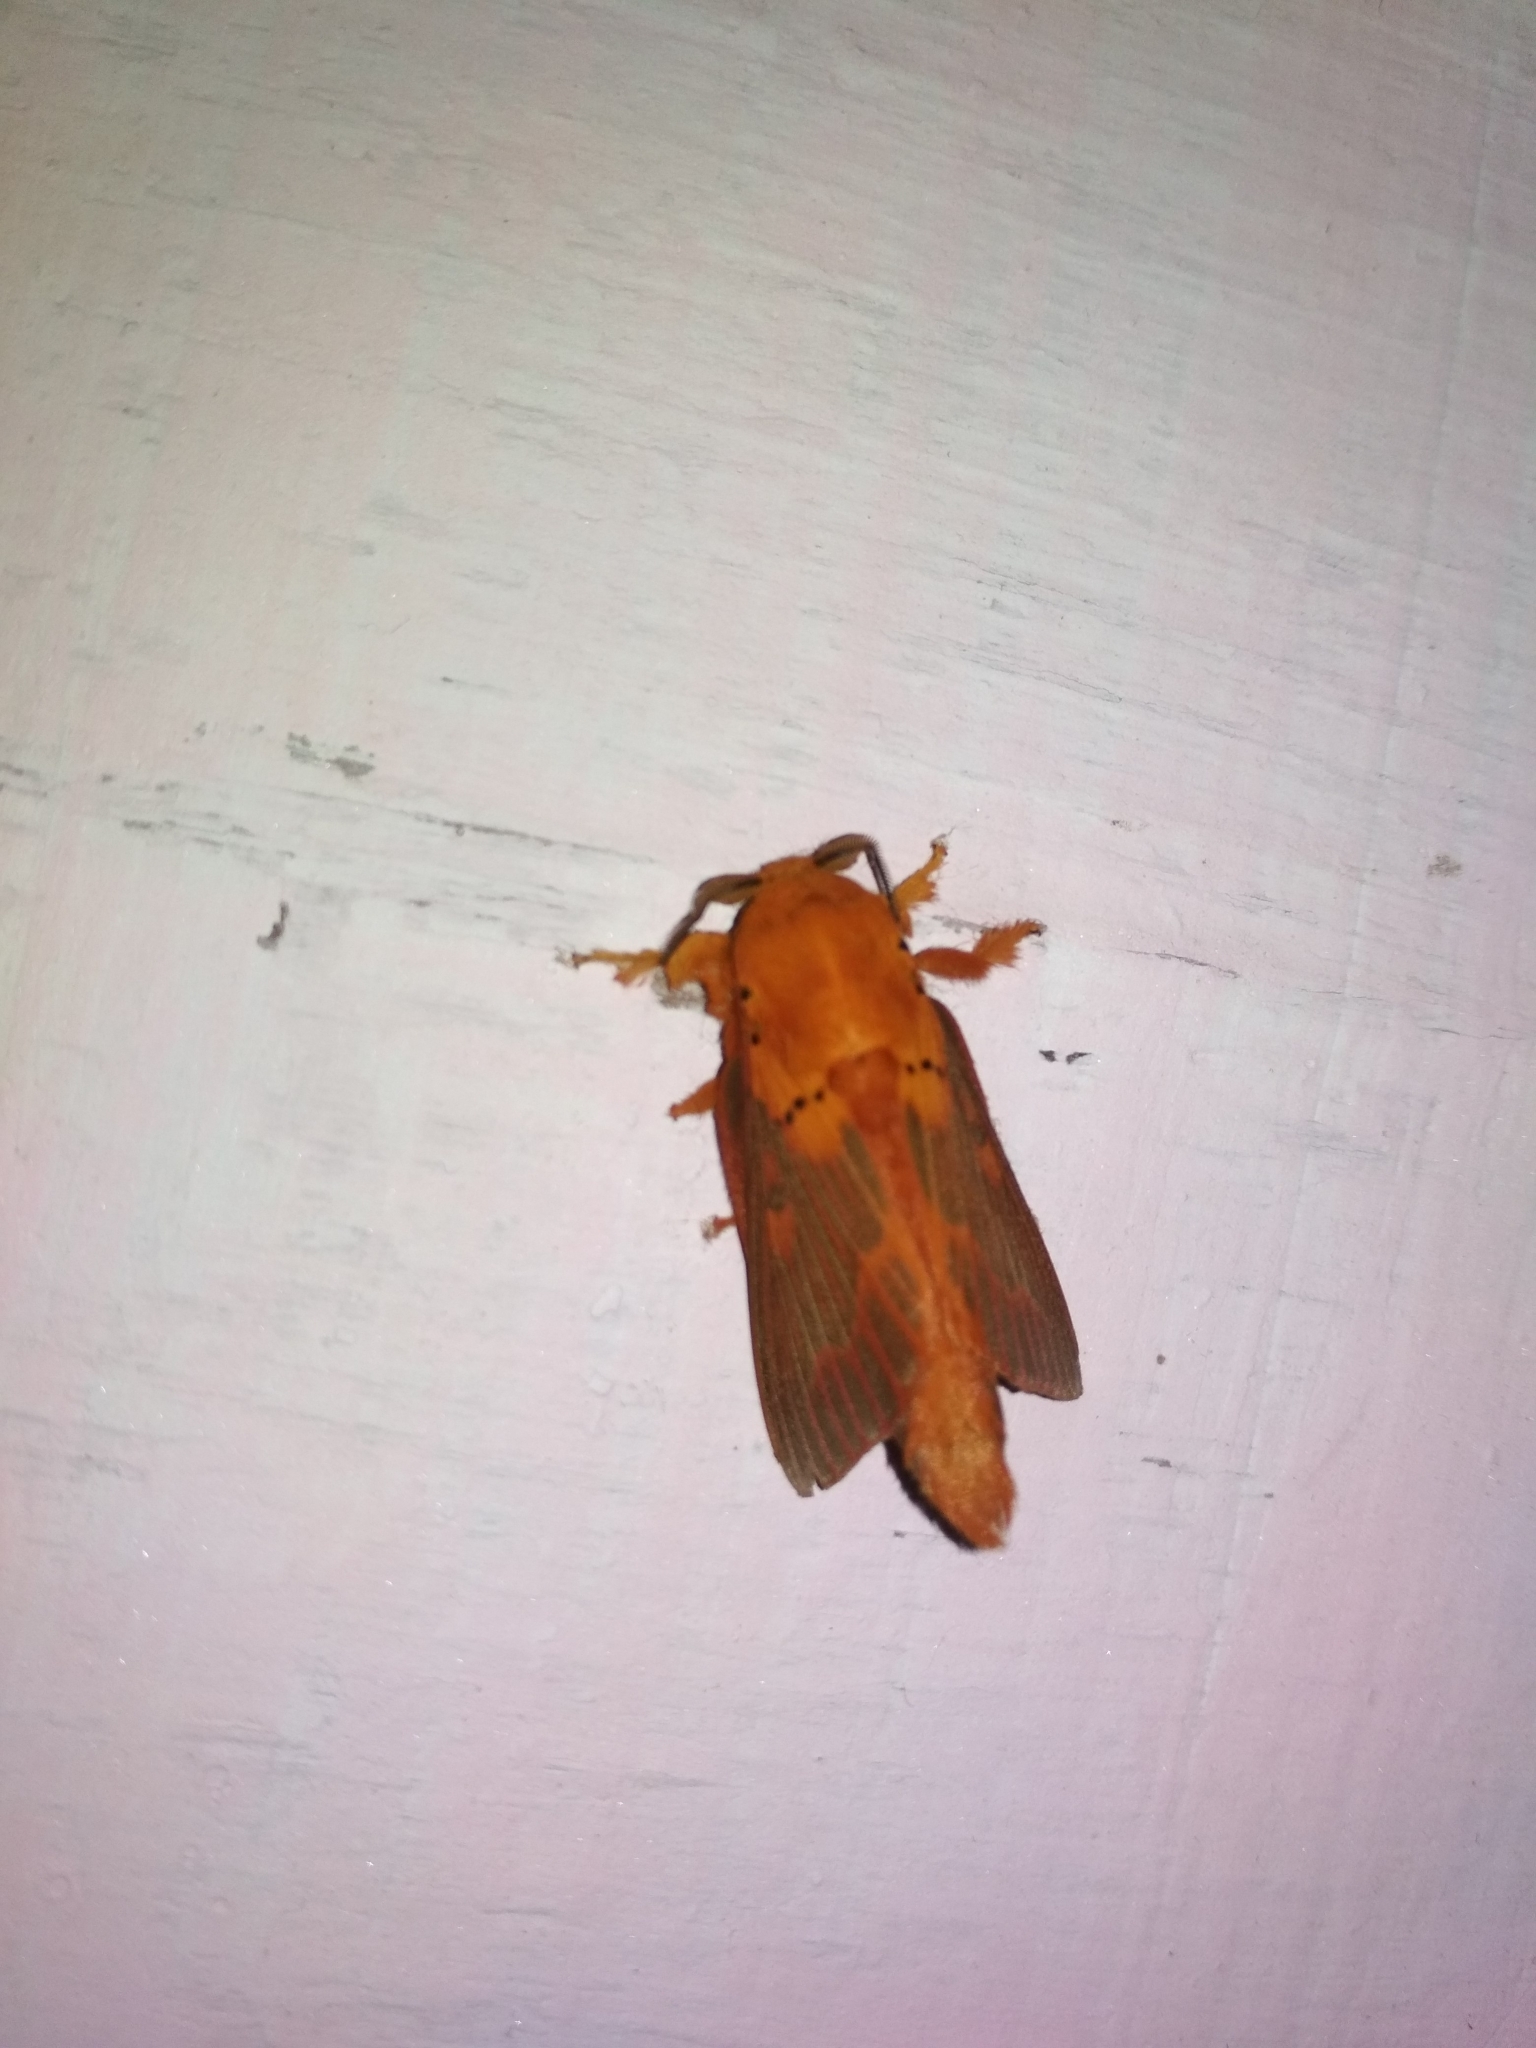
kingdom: Animalia
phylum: Arthropoda
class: Insecta
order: Lepidoptera
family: Lasiocampidae
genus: Alompra
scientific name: Alompra roepkei
